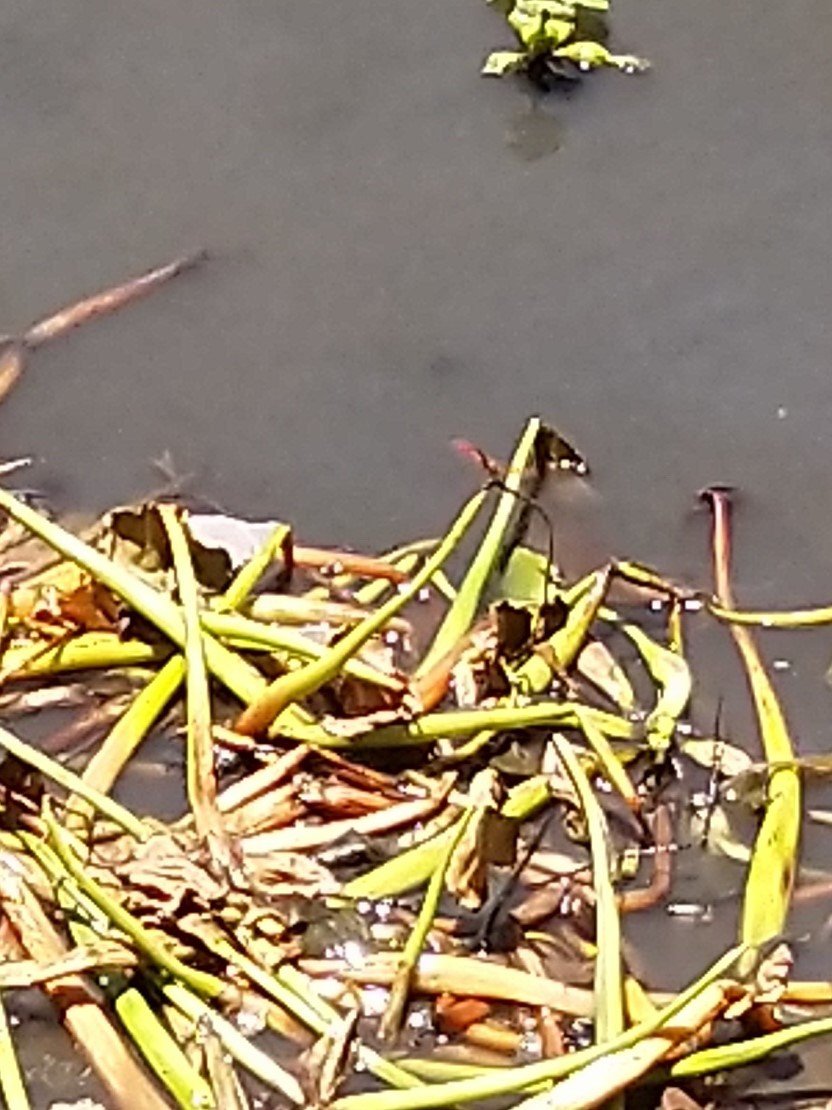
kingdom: Animalia
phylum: Arthropoda
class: Insecta
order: Odonata
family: Libellulidae
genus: Brachythemis
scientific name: Brachythemis contaminata
